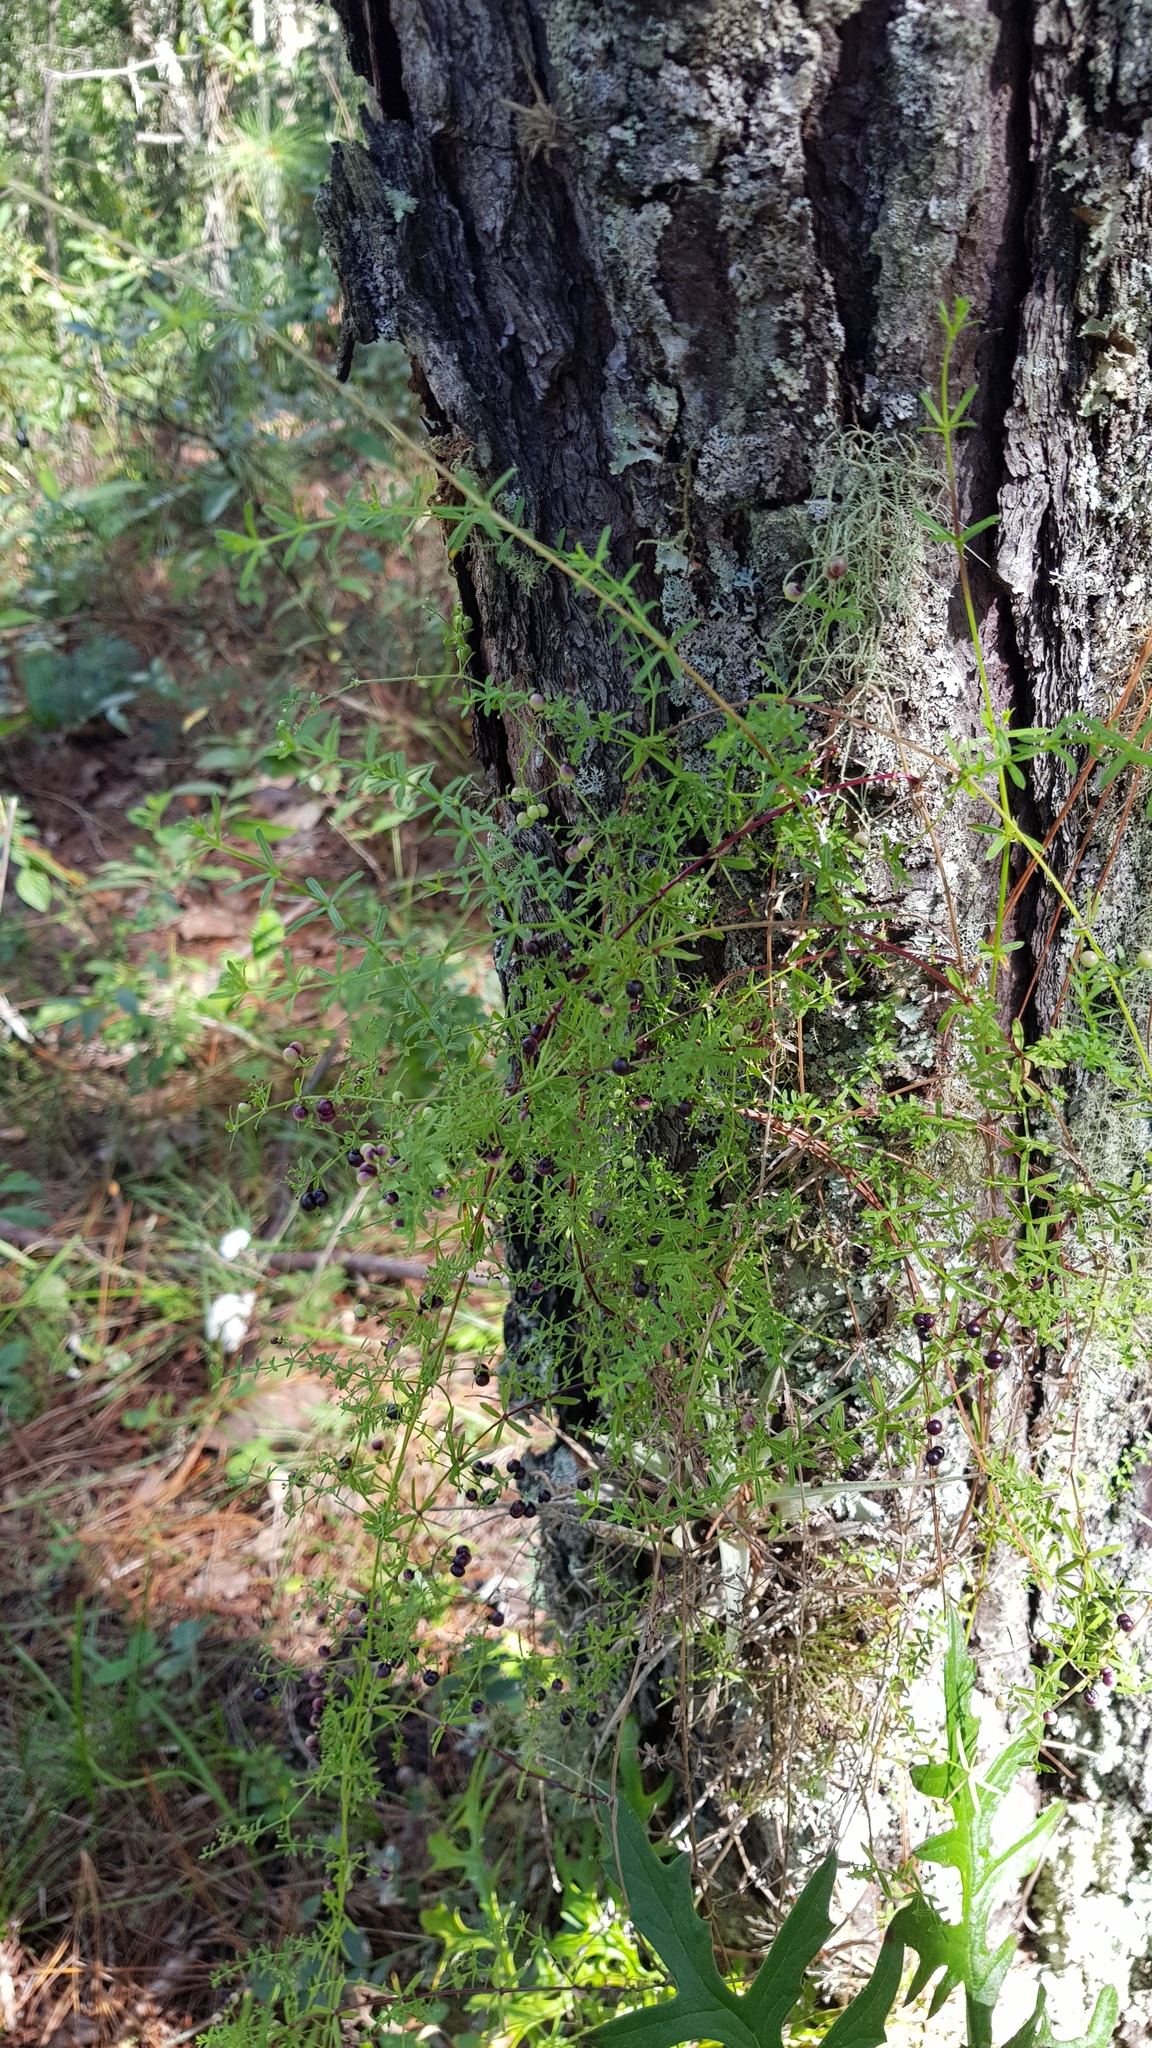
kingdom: Plantae
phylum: Tracheophyta
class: Magnoliopsida
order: Gentianales
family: Rubiaceae
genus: Galium
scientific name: Galium aschenbornii
